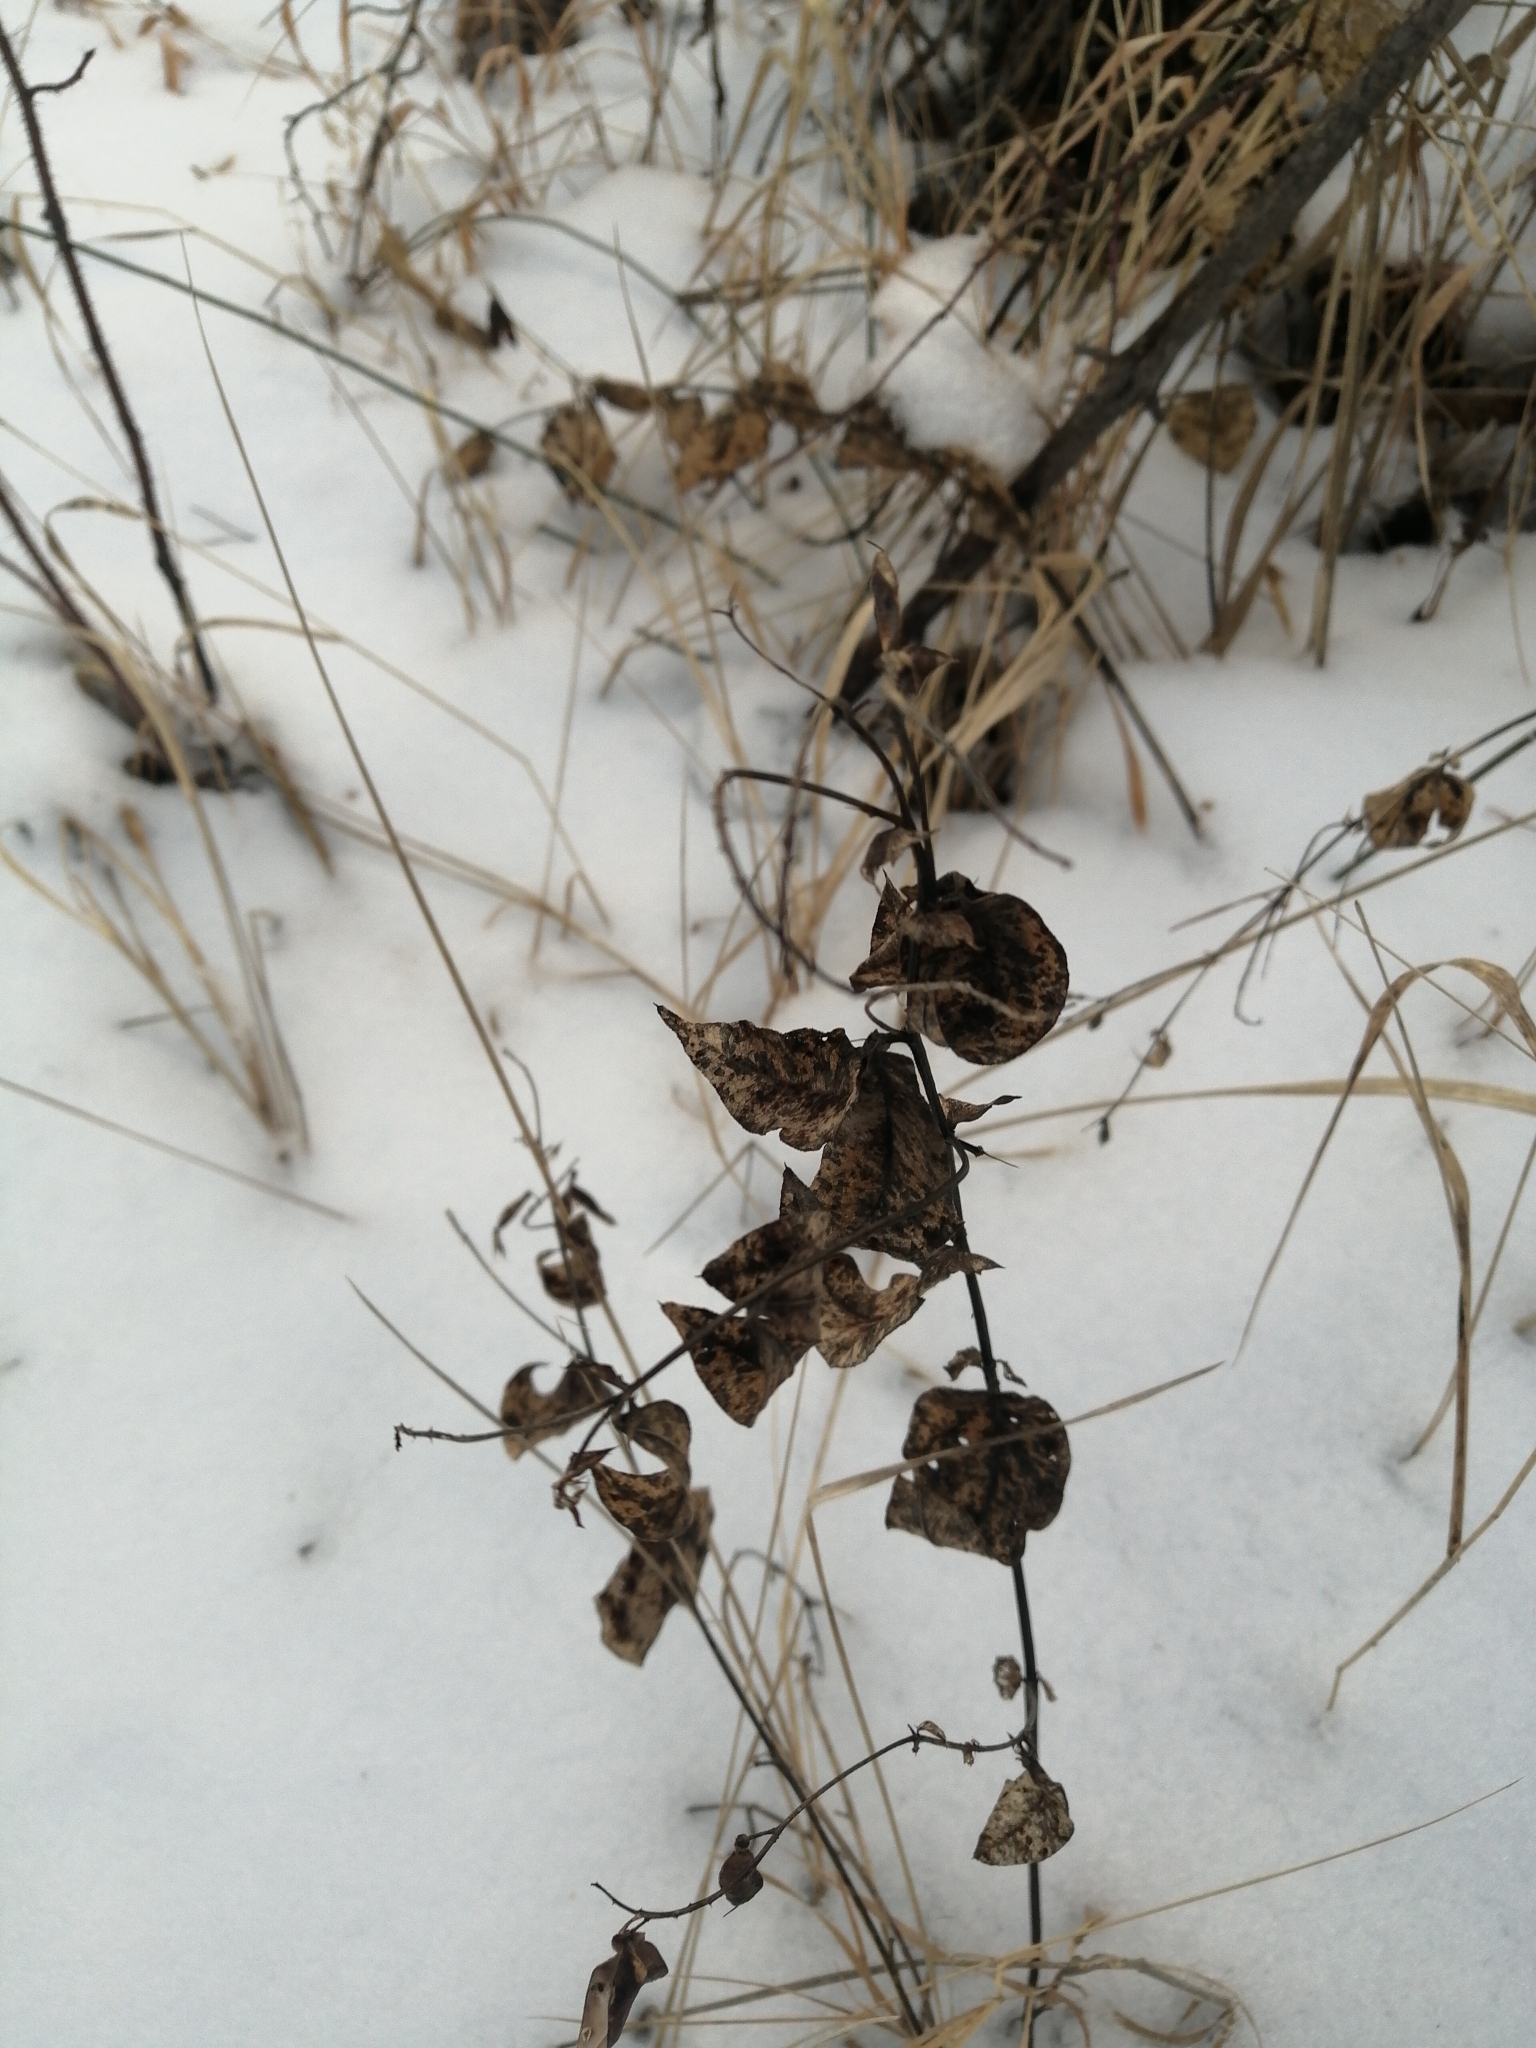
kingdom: Plantae
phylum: Tracheophyta
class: Magnoliopsida
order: Fabales
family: Fabaceae
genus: Vicia
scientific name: Vicia unijuga
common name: Two-leaf vetch
